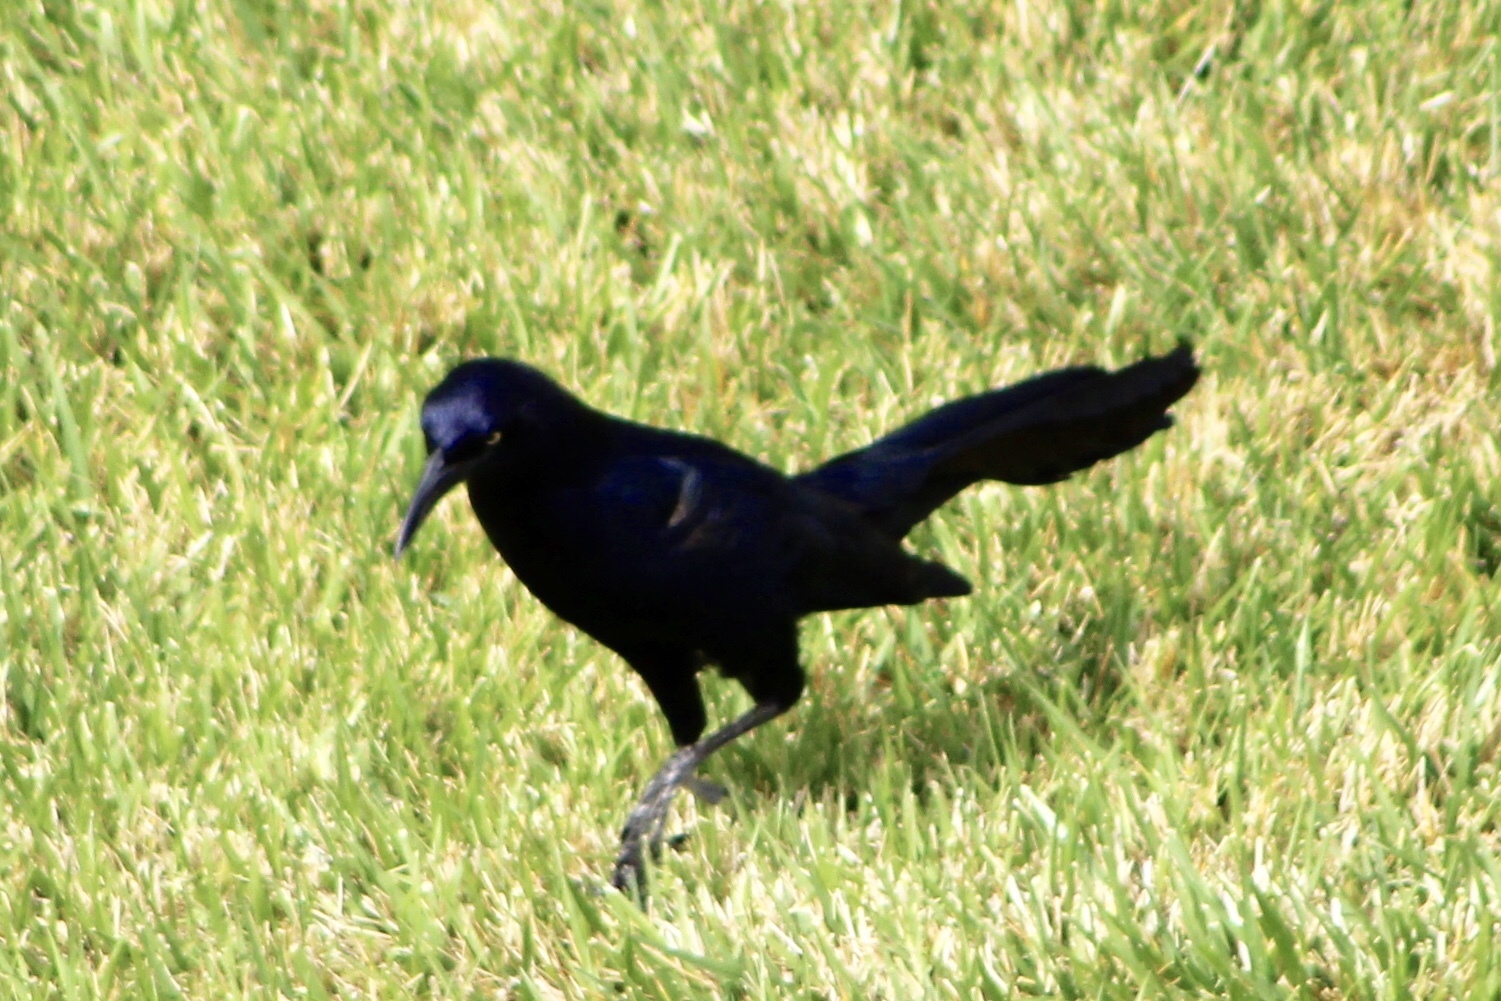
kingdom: Animalia
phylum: Chordata
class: Aves
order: Passeriformes
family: Icteridae
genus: Quiscalus
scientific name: Quiscalus mexicanus
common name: Great-tailed grackle
